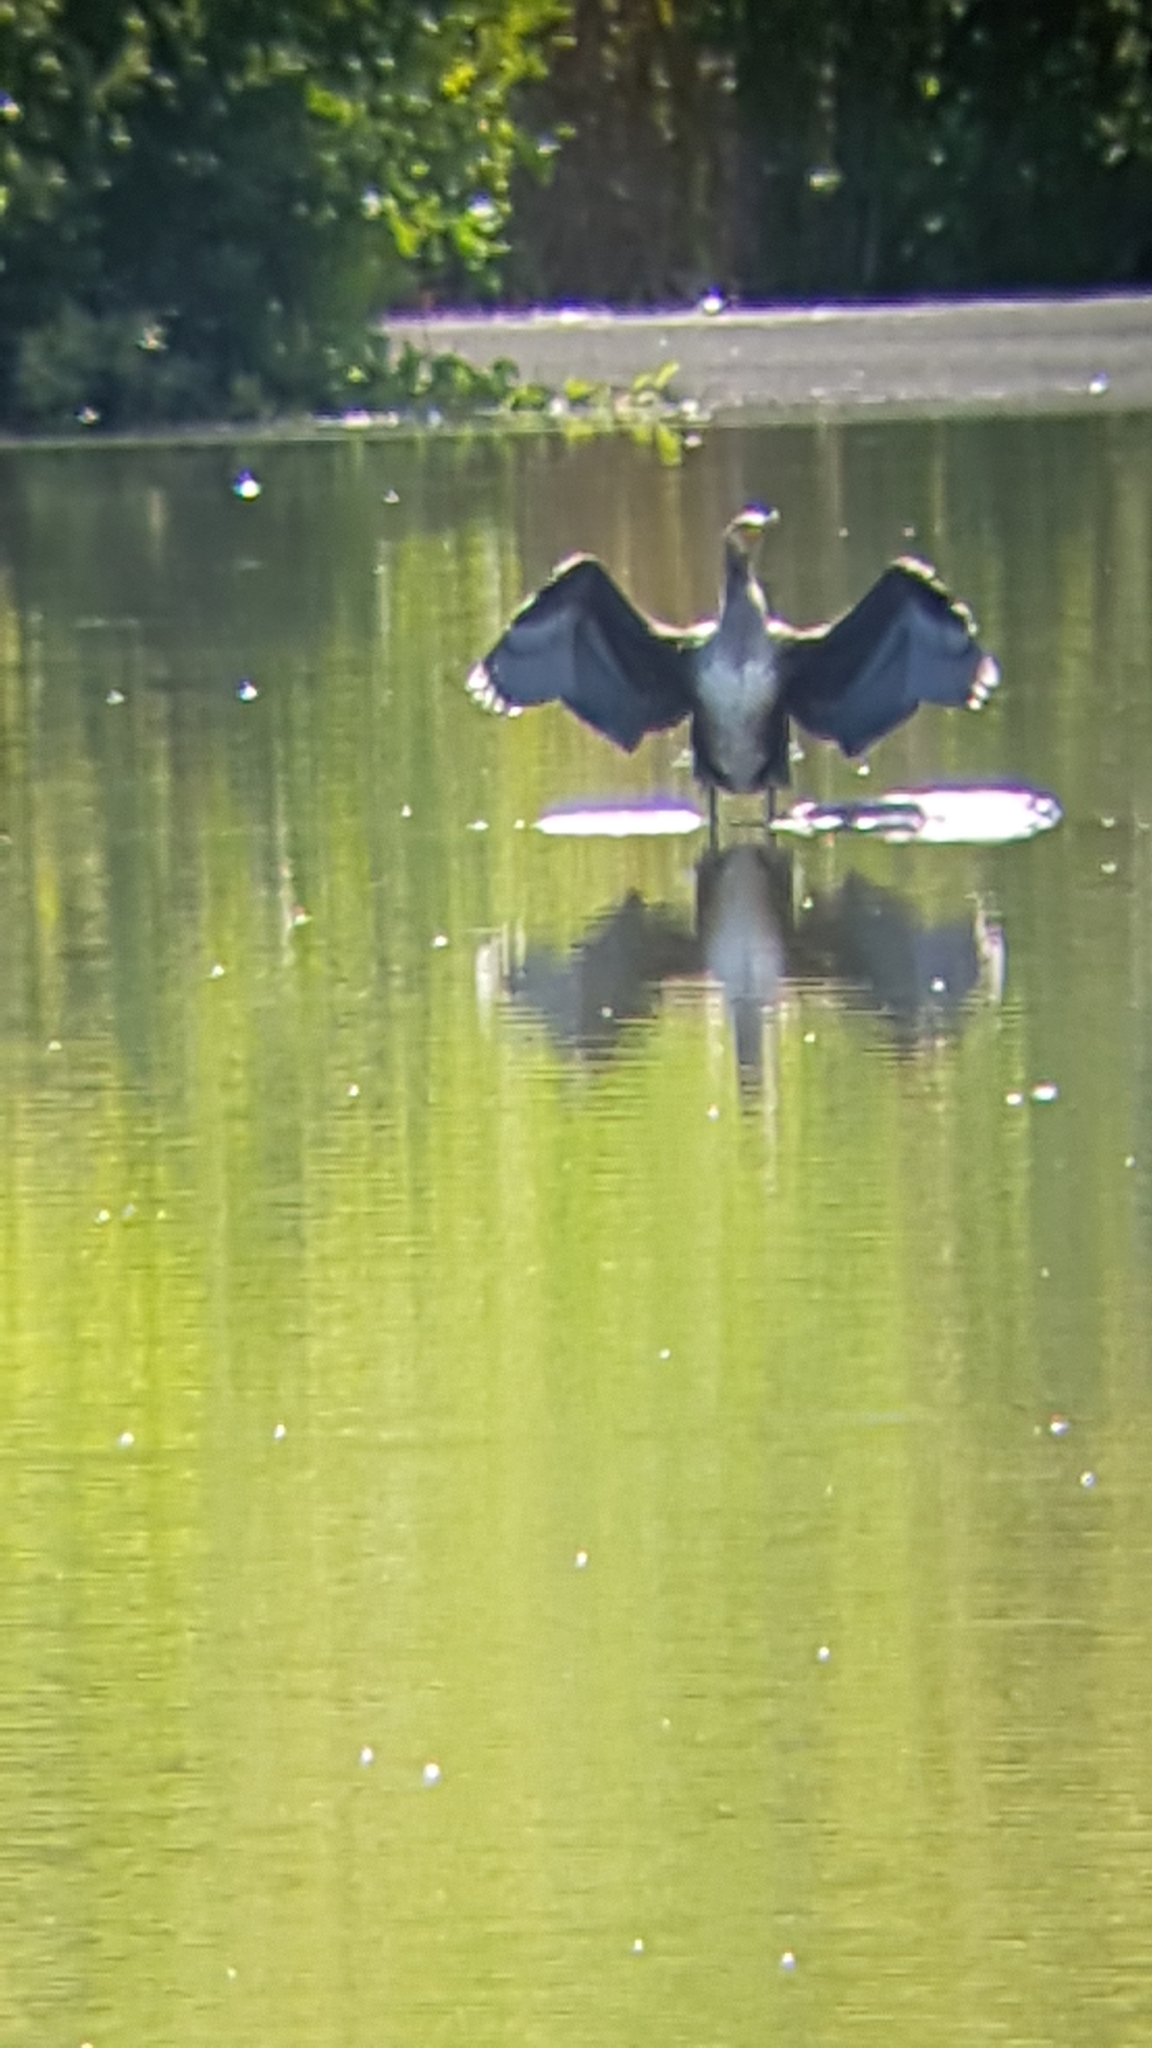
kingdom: Animalia
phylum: Chordata
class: Aves
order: Suliformes
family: Phalacrocoracidae
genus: Phalacrocorax
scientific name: Phalacrocorax carbo
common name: Great cormorant
